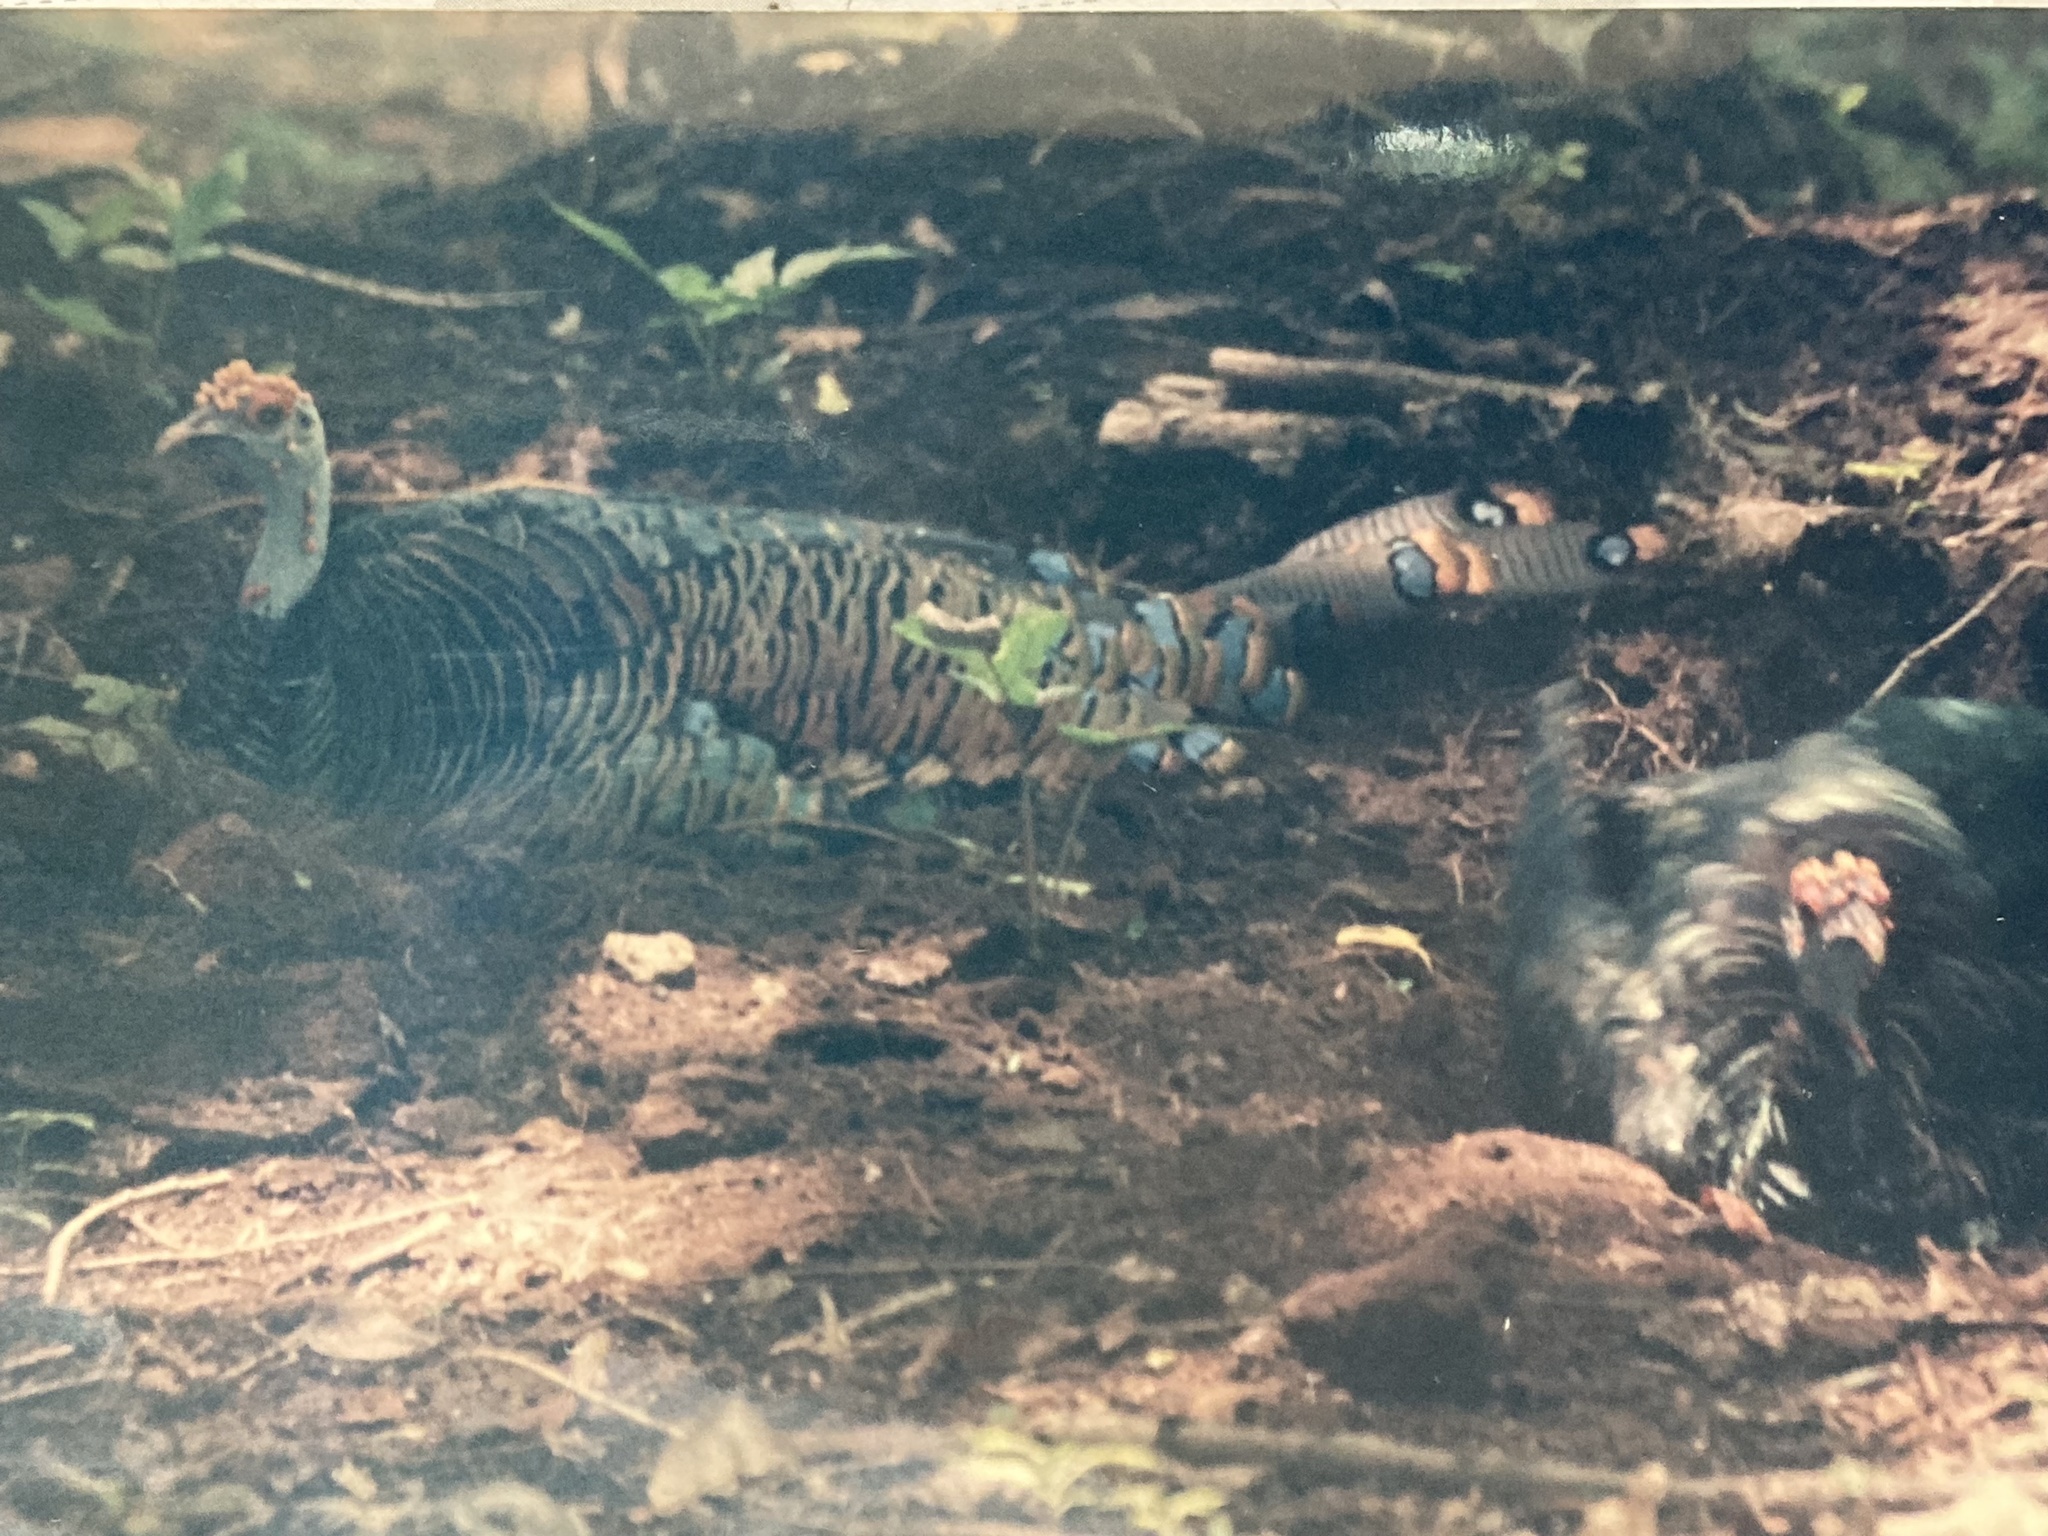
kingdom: Animalia
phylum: Chordata
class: Aves
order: Galliformes
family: Phasianidae
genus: Meleagris
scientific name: Meleagris ocellata
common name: Ocellated turkey
